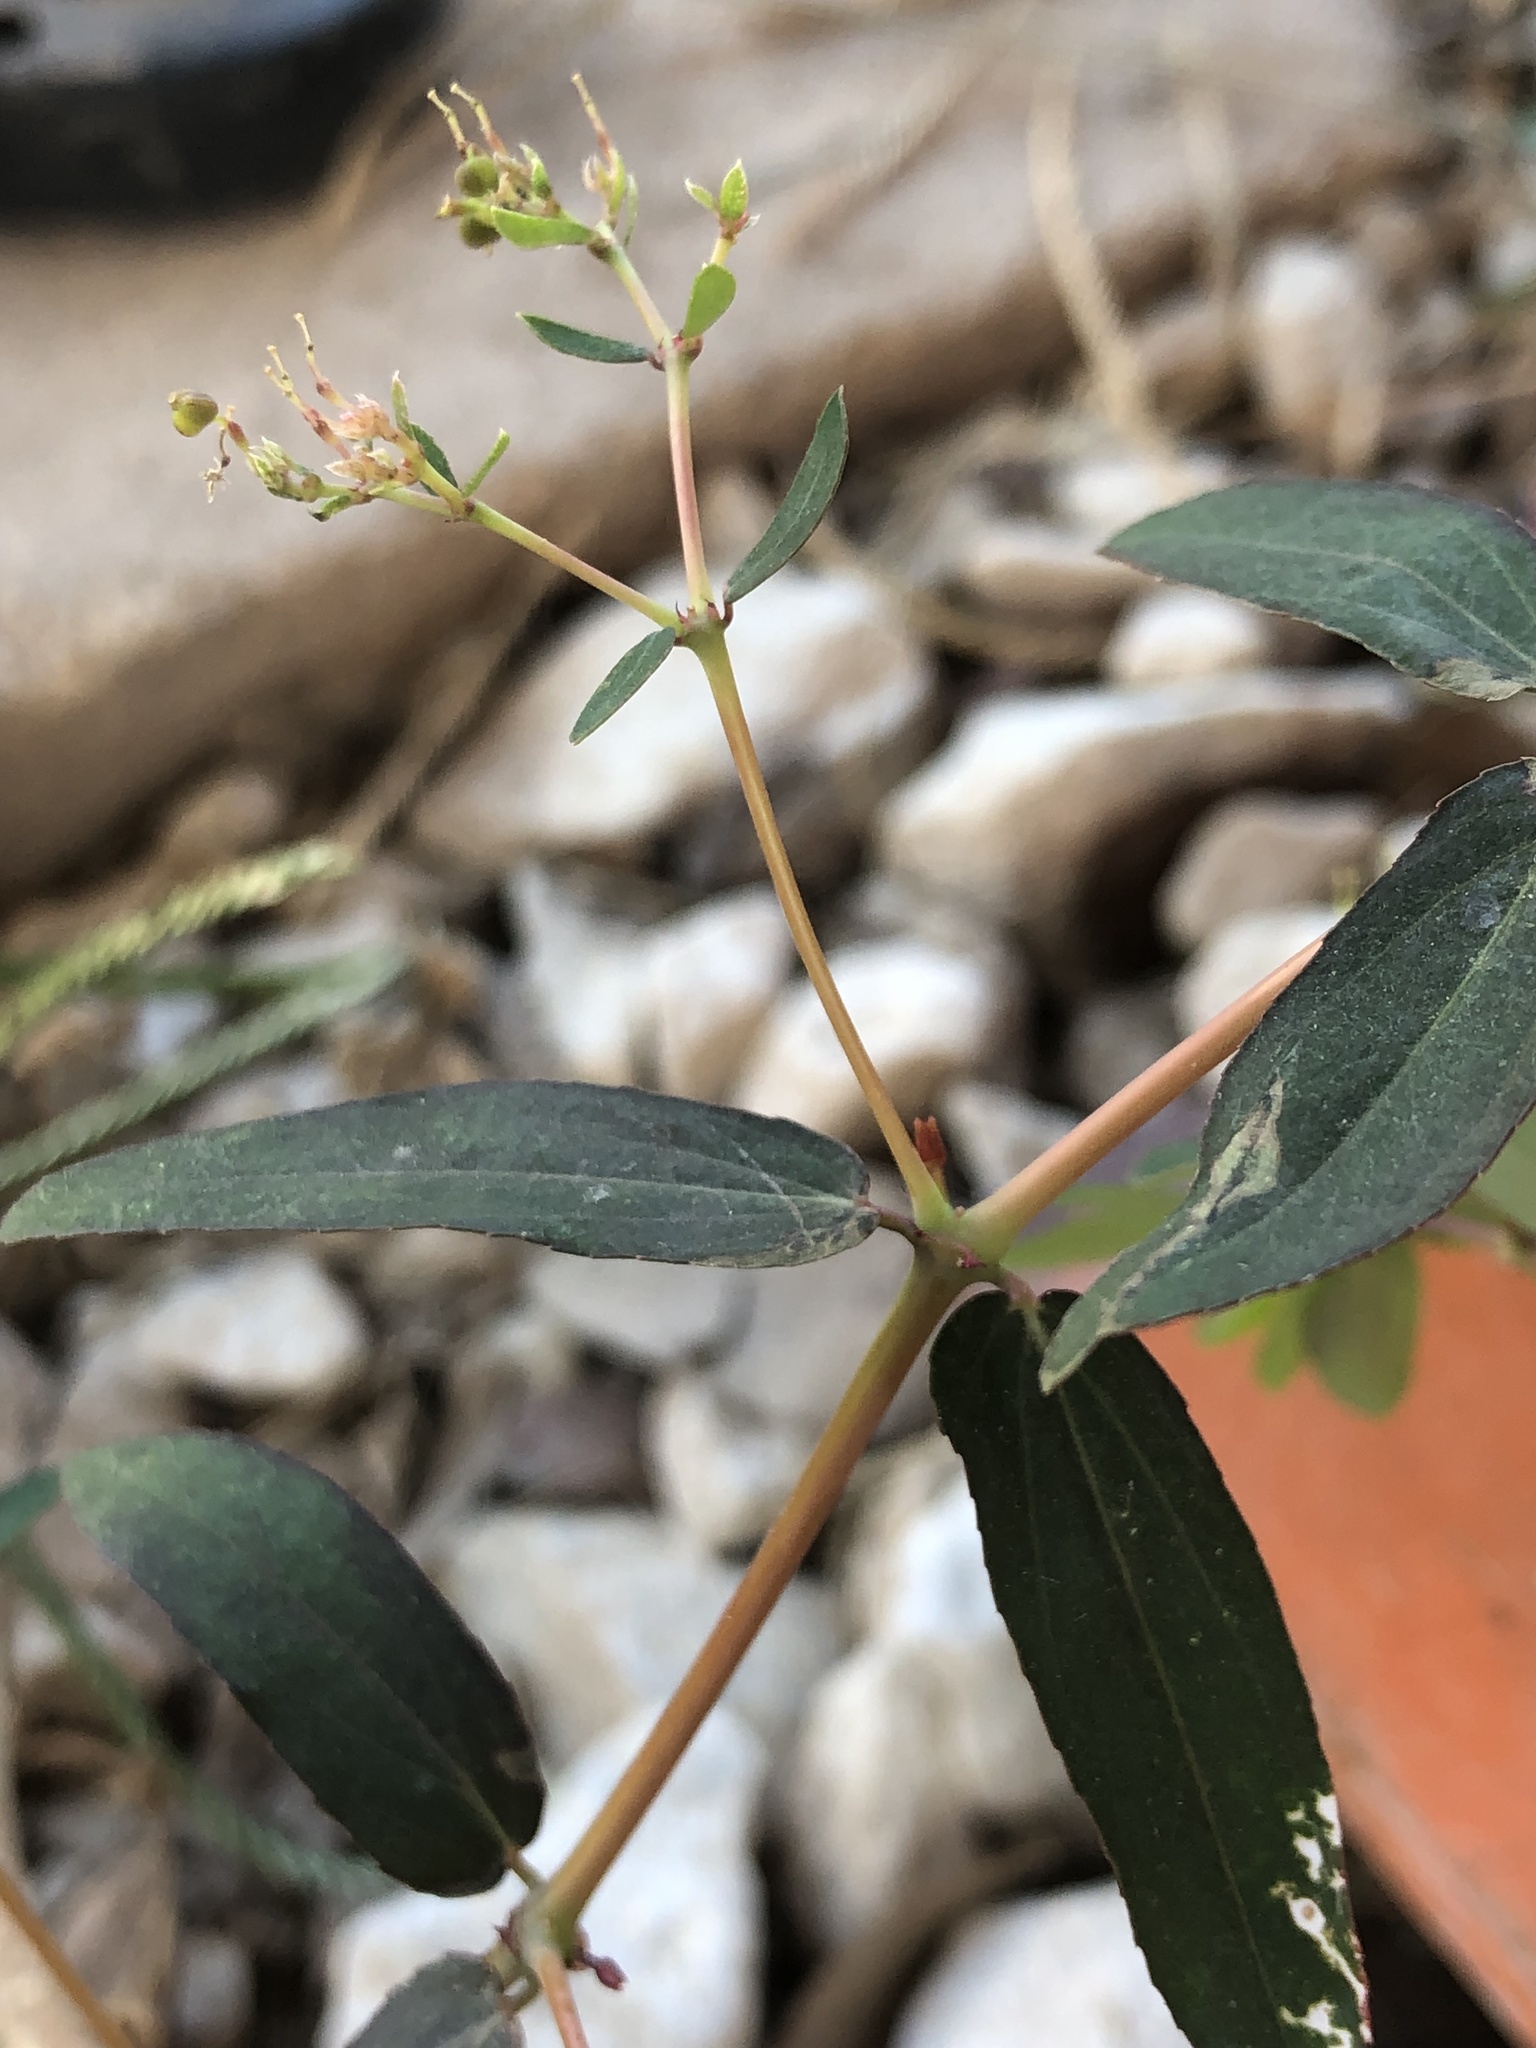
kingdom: Plantae
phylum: Tracheophyta
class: Magnoliopsida
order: Malpighiales
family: Euphorbiaceae
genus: Euphorbia
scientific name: Euphorbia hypericifolia
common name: Graceful sandmat
